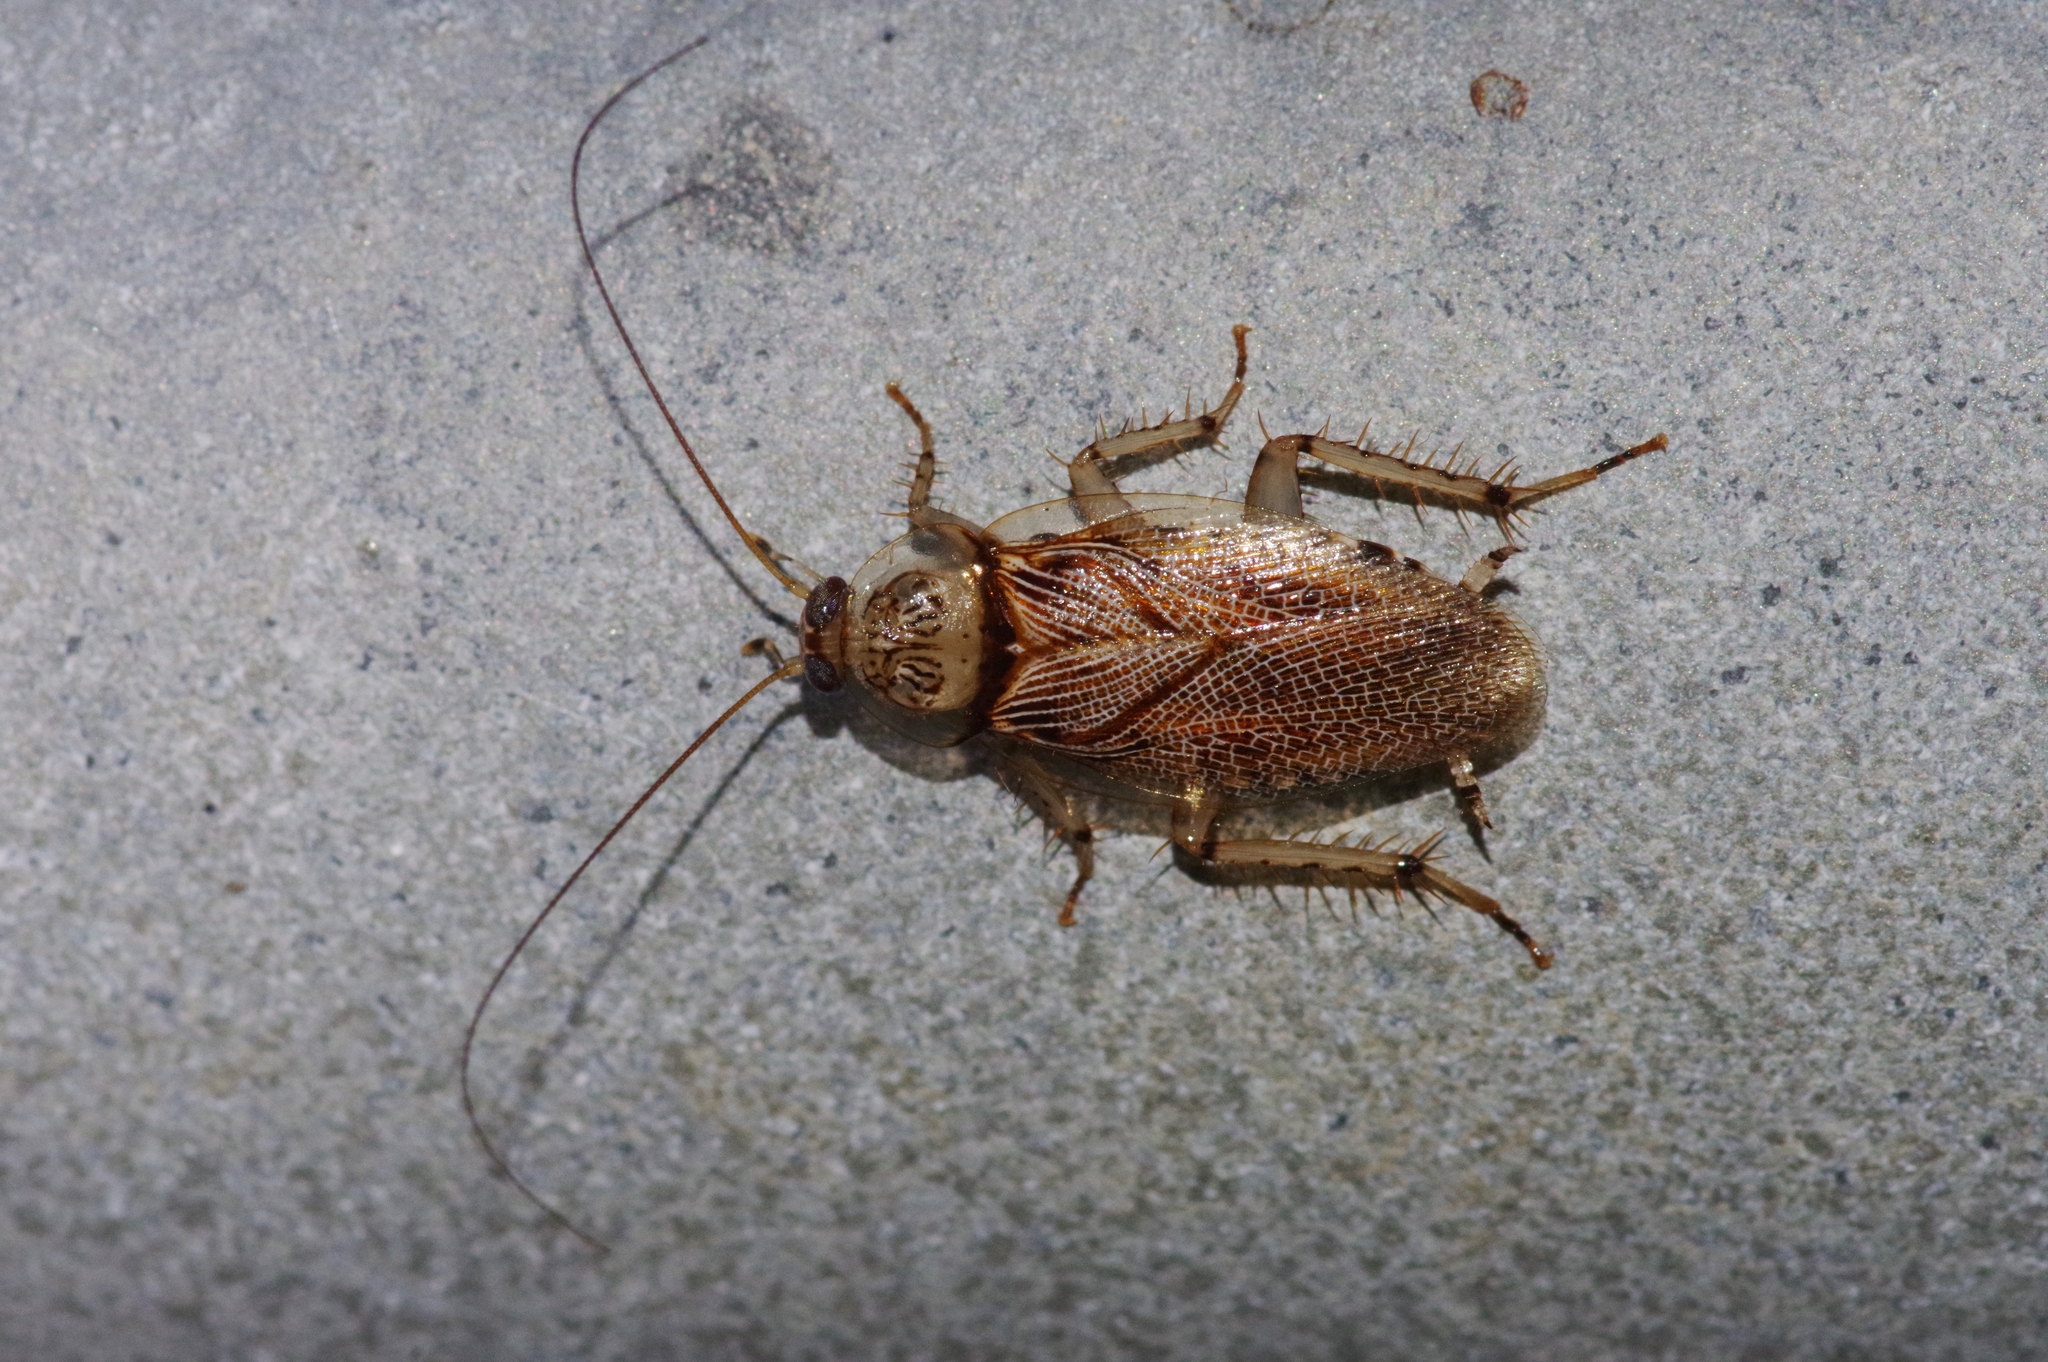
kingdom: Animalia
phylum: Arthropoda
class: Insecta
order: Blattodea
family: Ectobiidae
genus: Balta
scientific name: Balta notulata
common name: Cockroach
